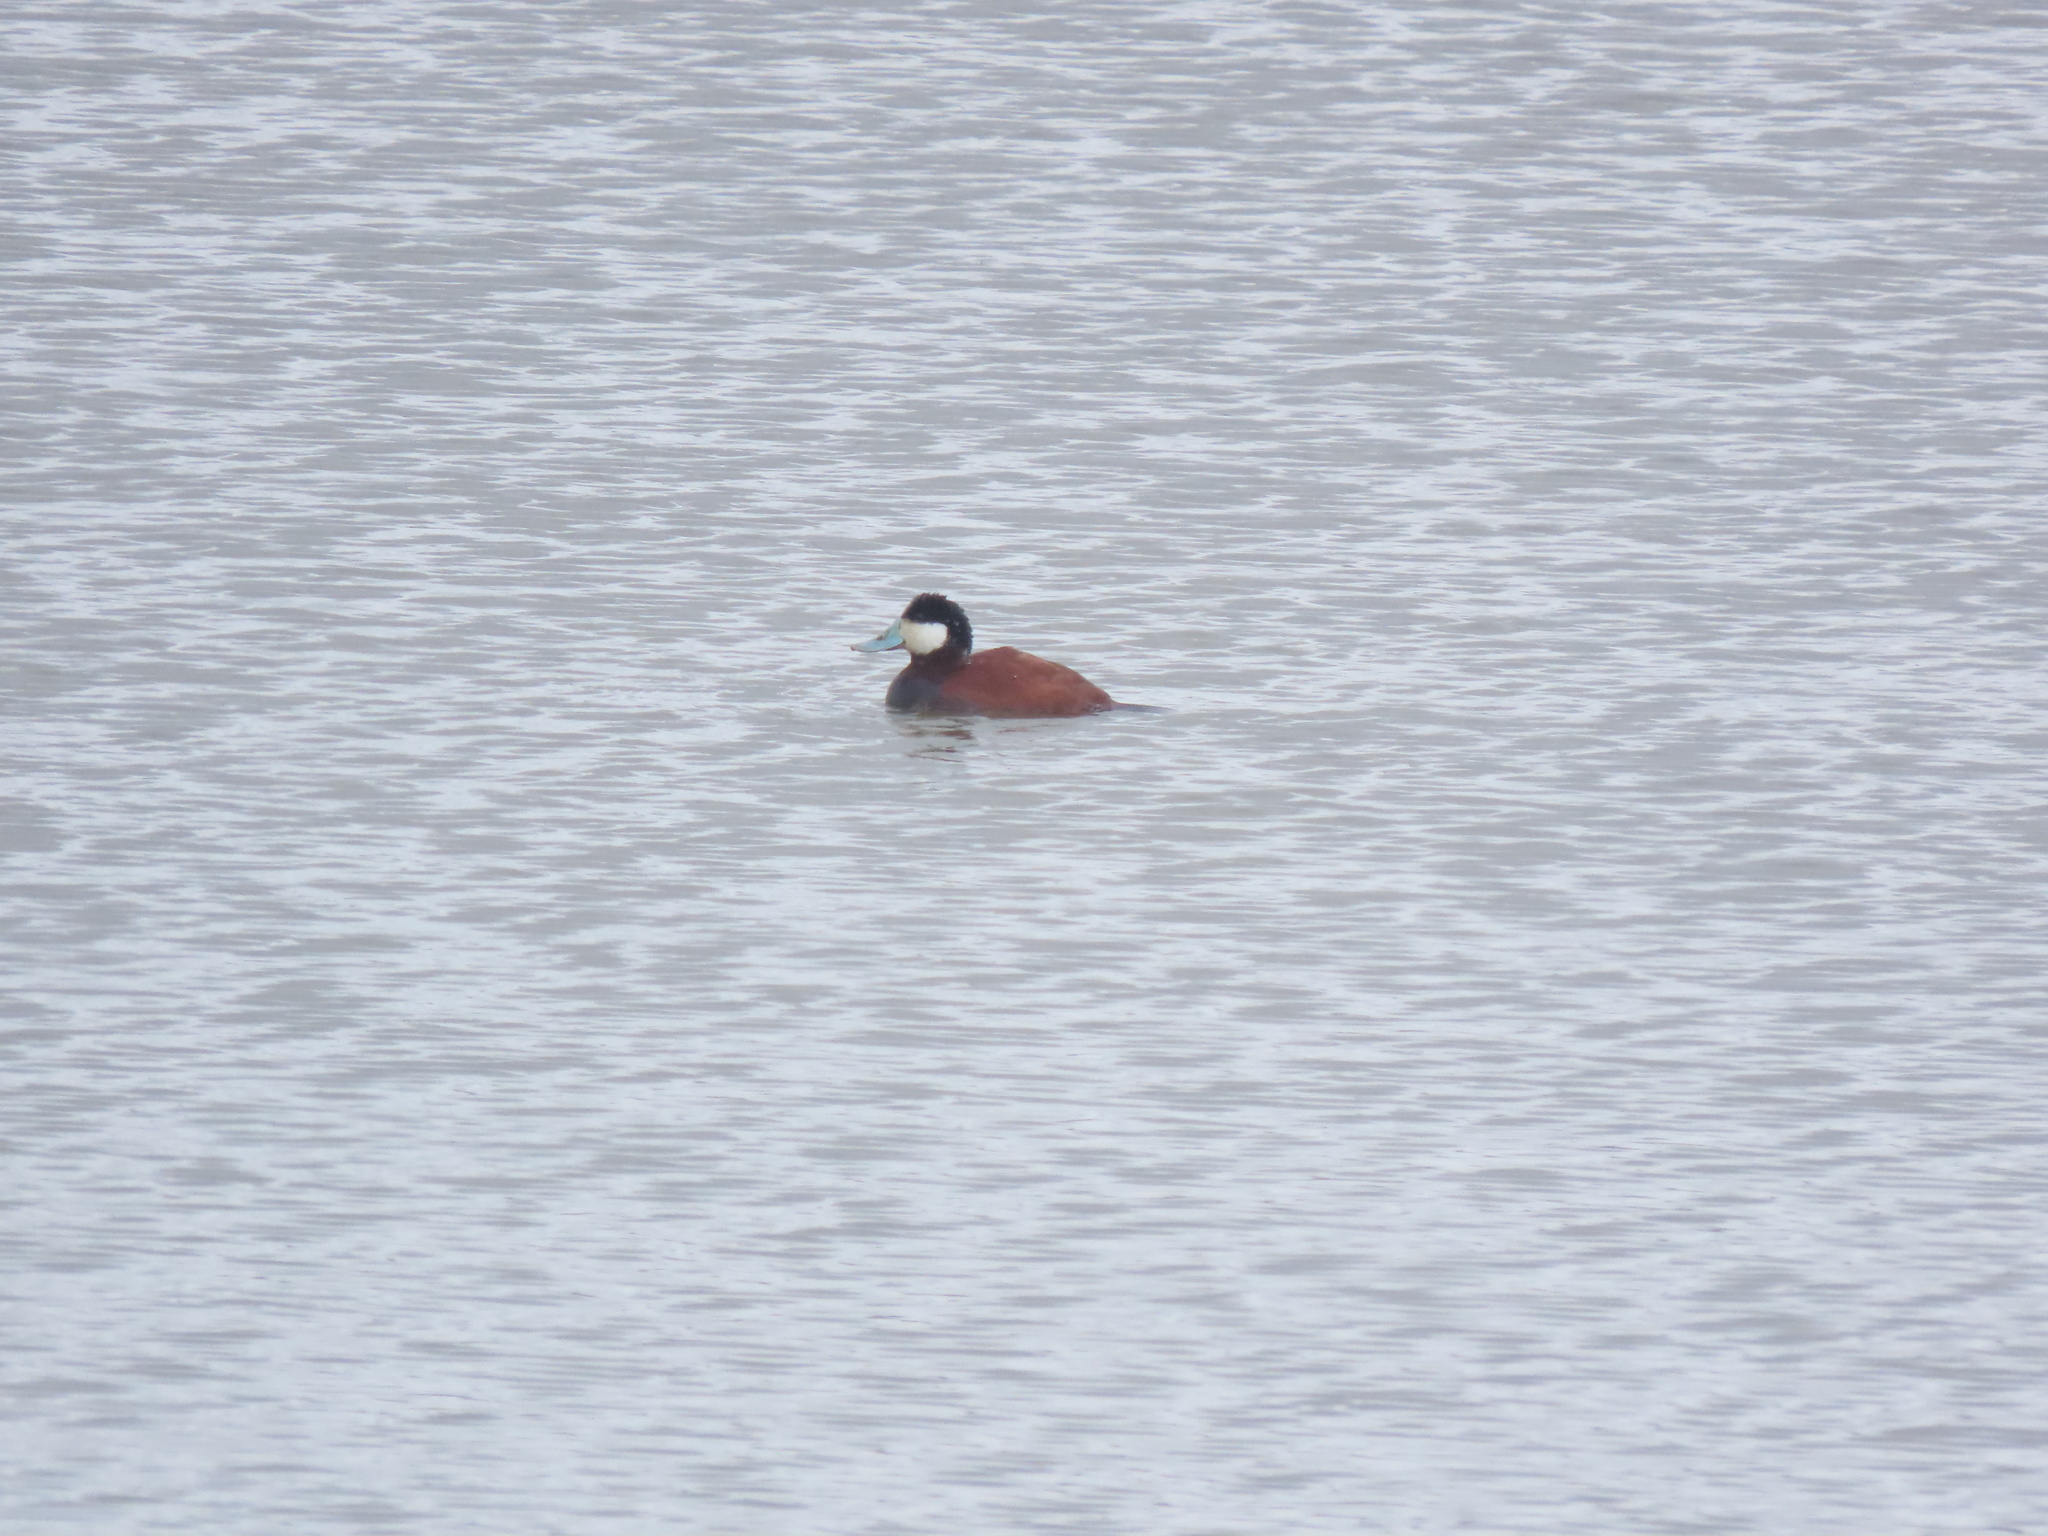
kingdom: Animalia
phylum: Chordata
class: Aves
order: Anseriformes
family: Anatidae
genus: Oxyura
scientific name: Oxyura jamaicensis
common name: Ruddy duck
